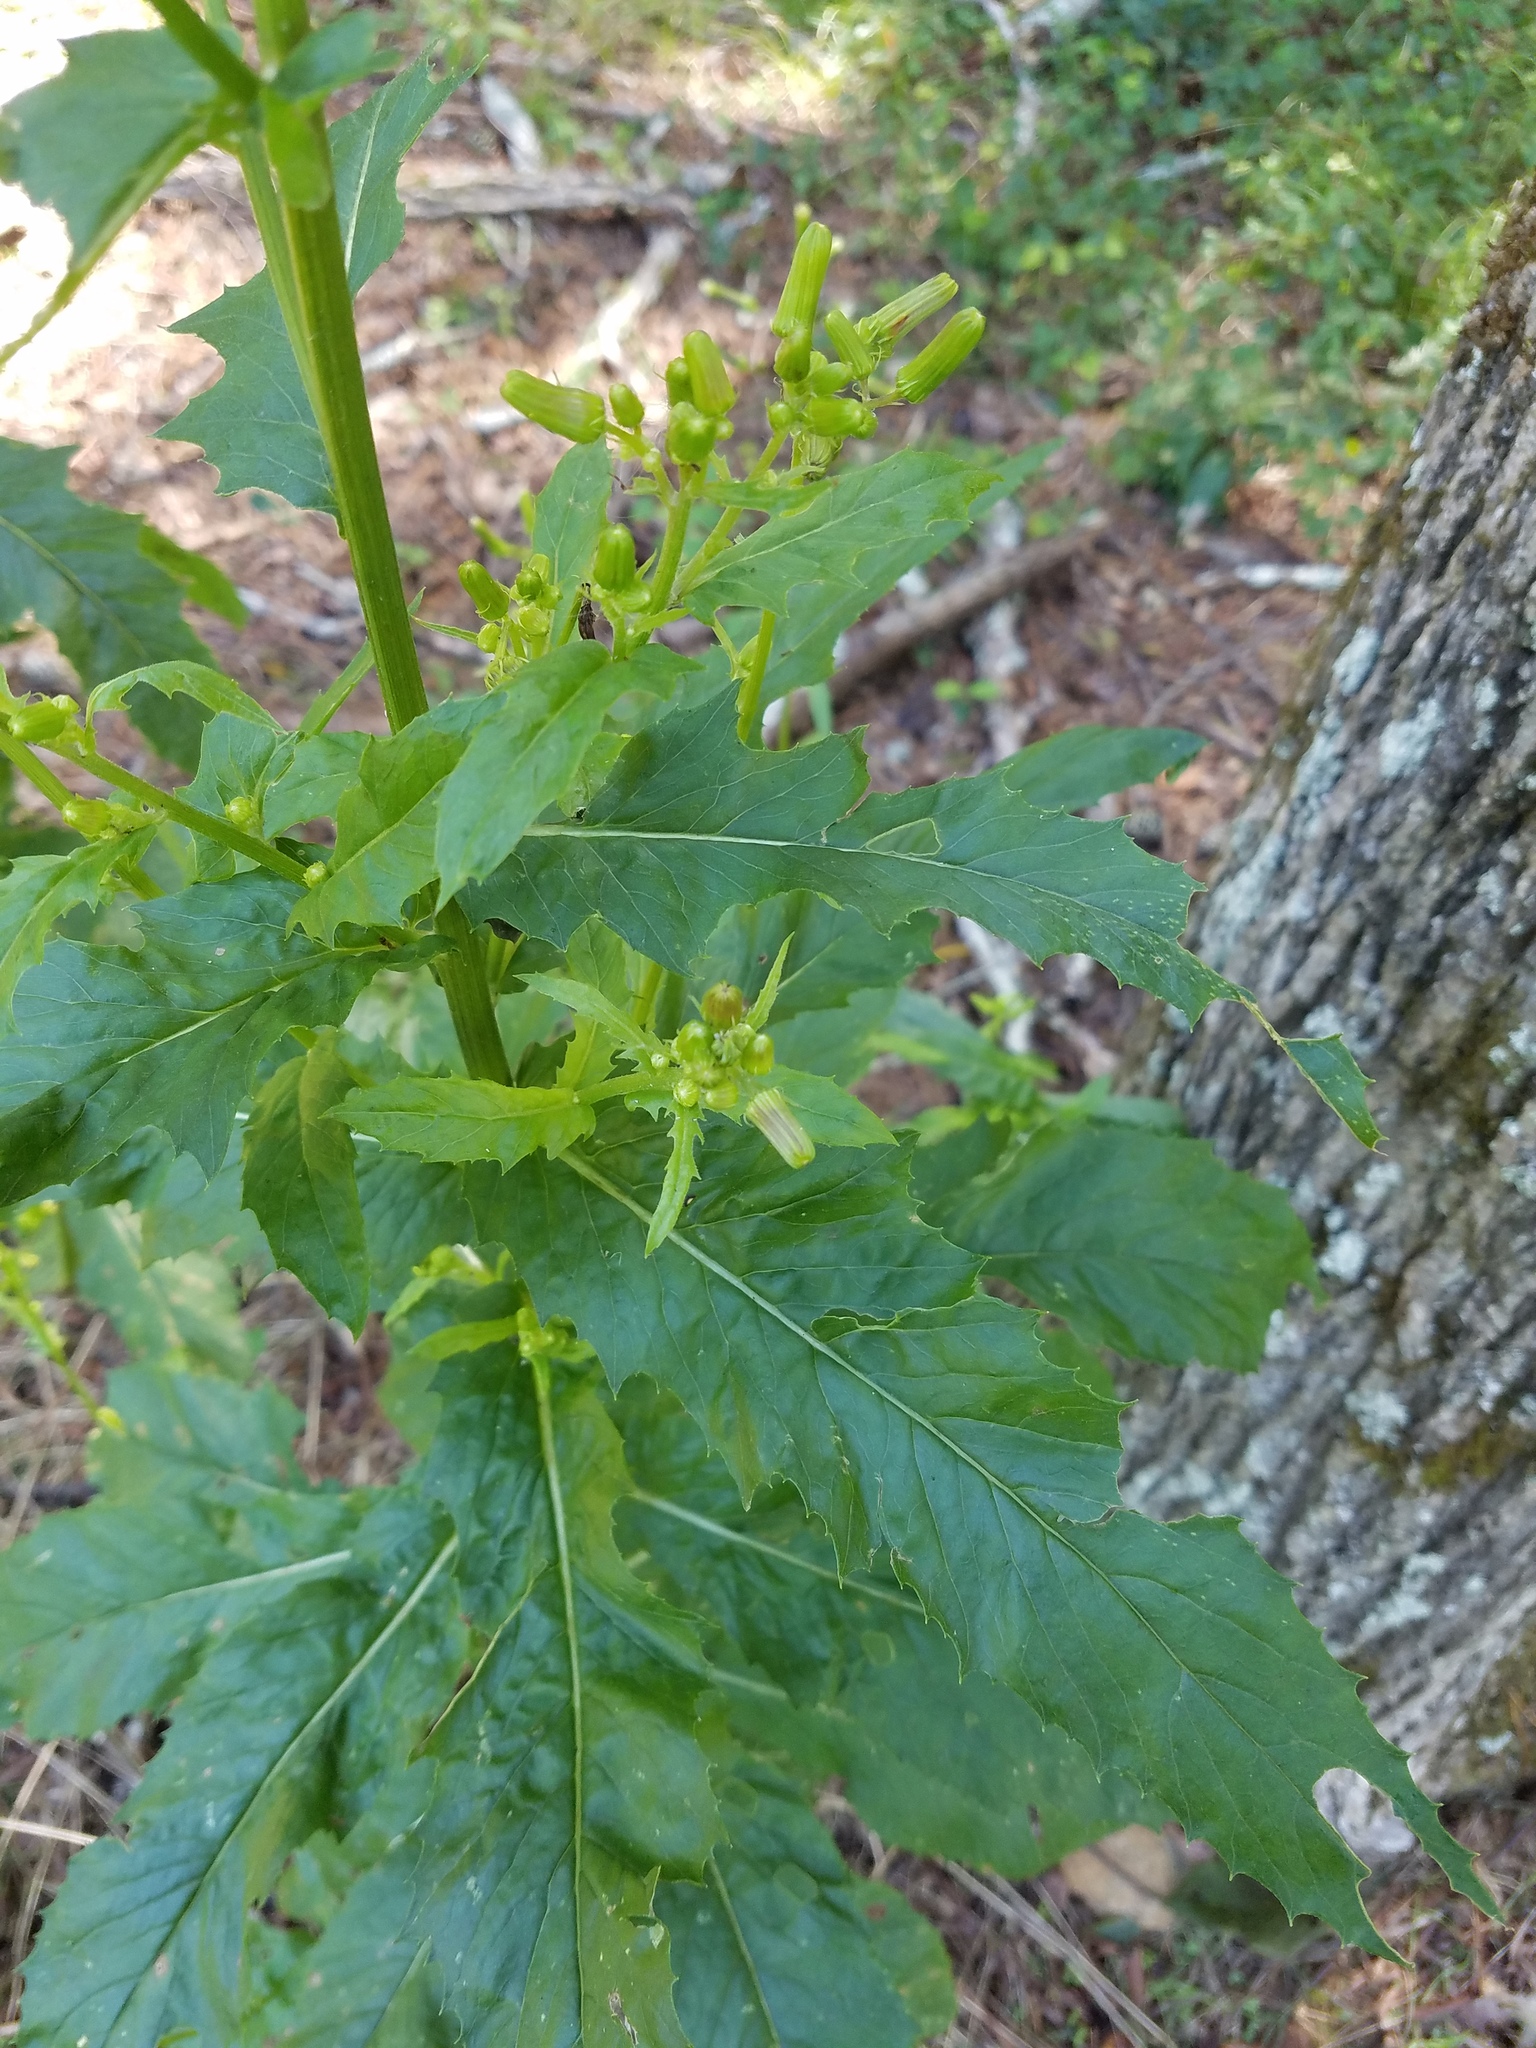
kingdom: Plantae
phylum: Tracheophyta
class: Magnoliopsida
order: Asterales
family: Asteraceae
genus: Erechtites
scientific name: Erechtites hieraciifolius
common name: American burnweed
